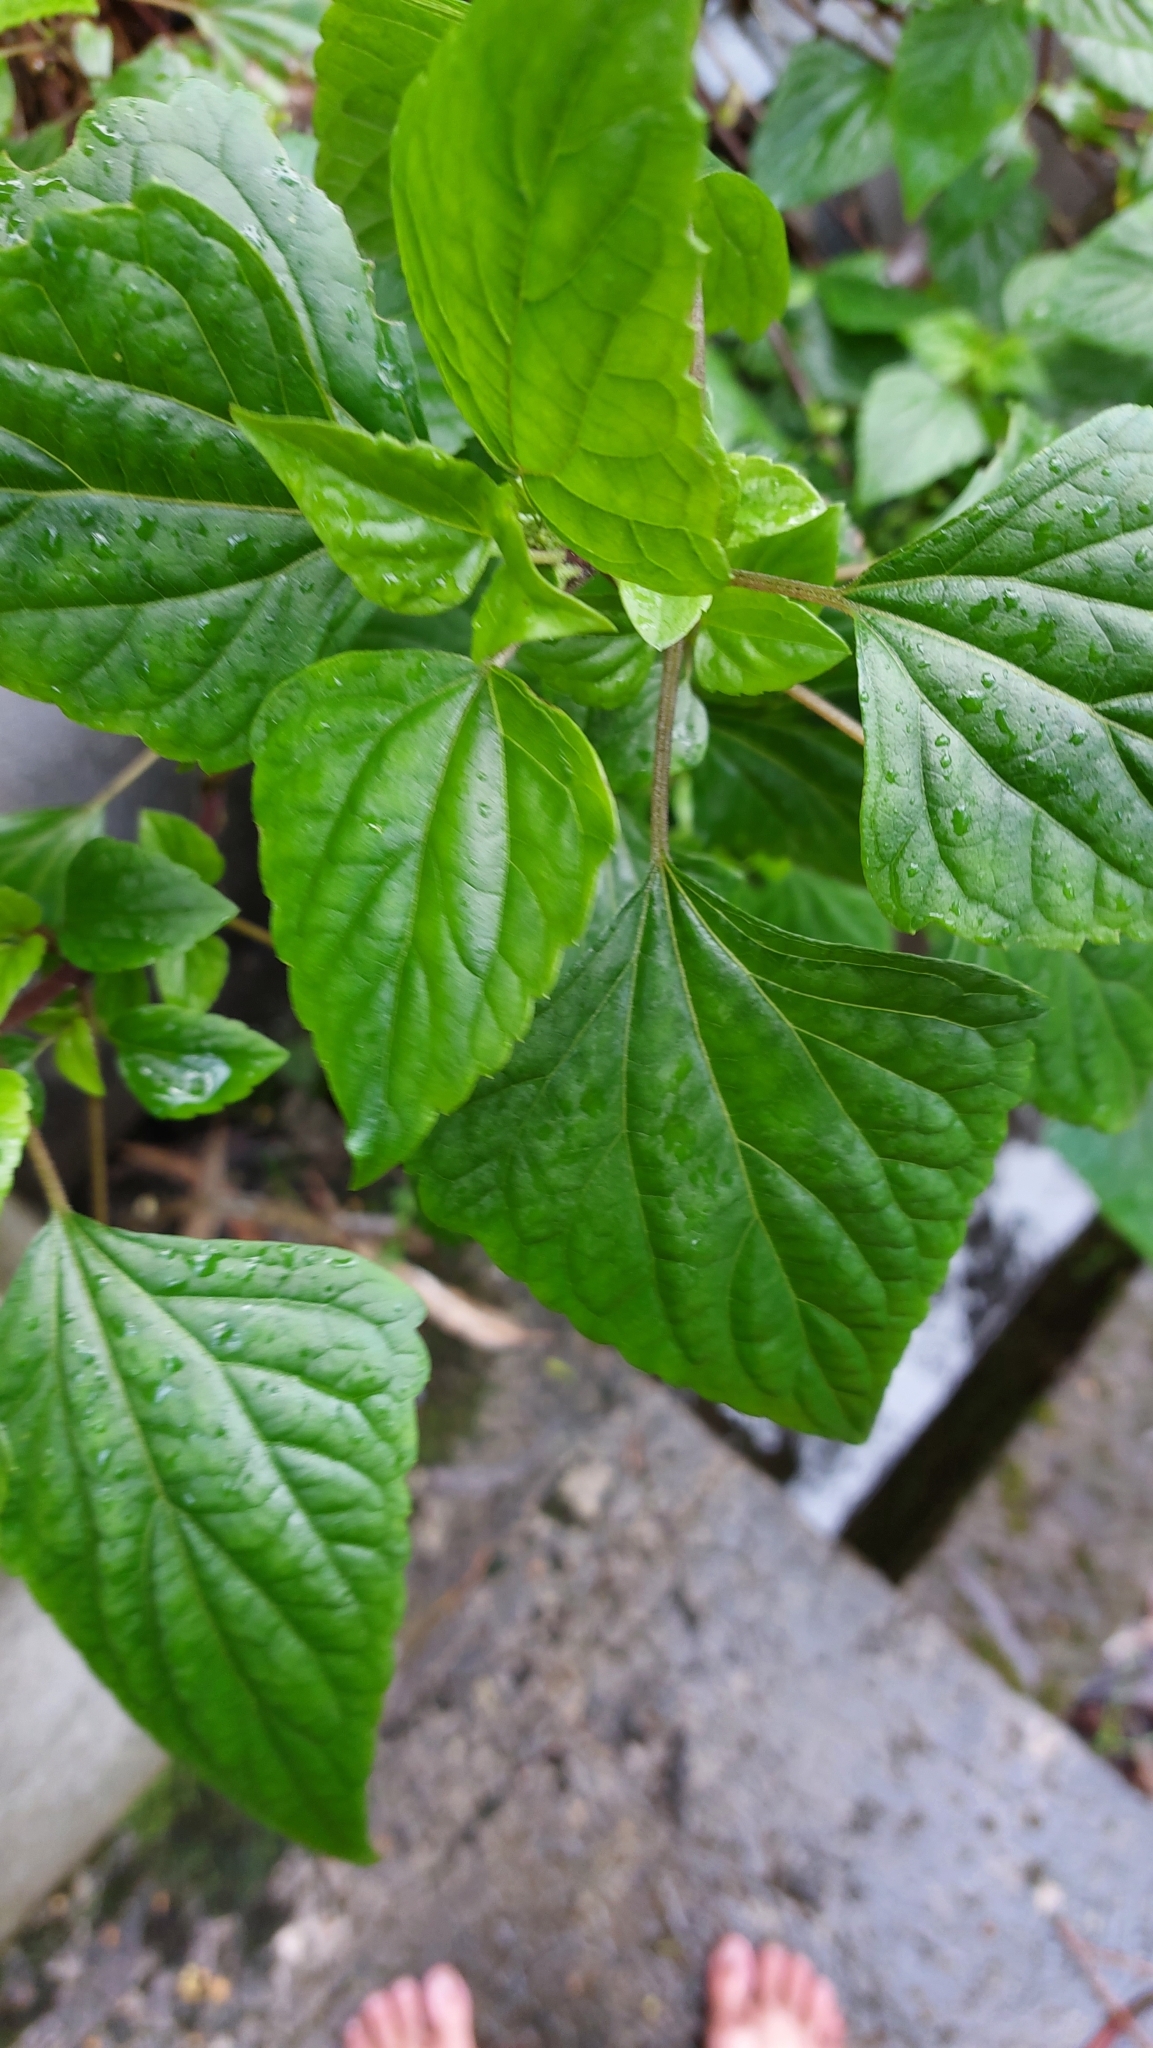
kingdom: Plantae
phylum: Tracheophyta
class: Magnoliopsida
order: Asterales
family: Asteraceae
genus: Ageratina
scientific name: Ageratina adenophora
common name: Sticky snakeroot
